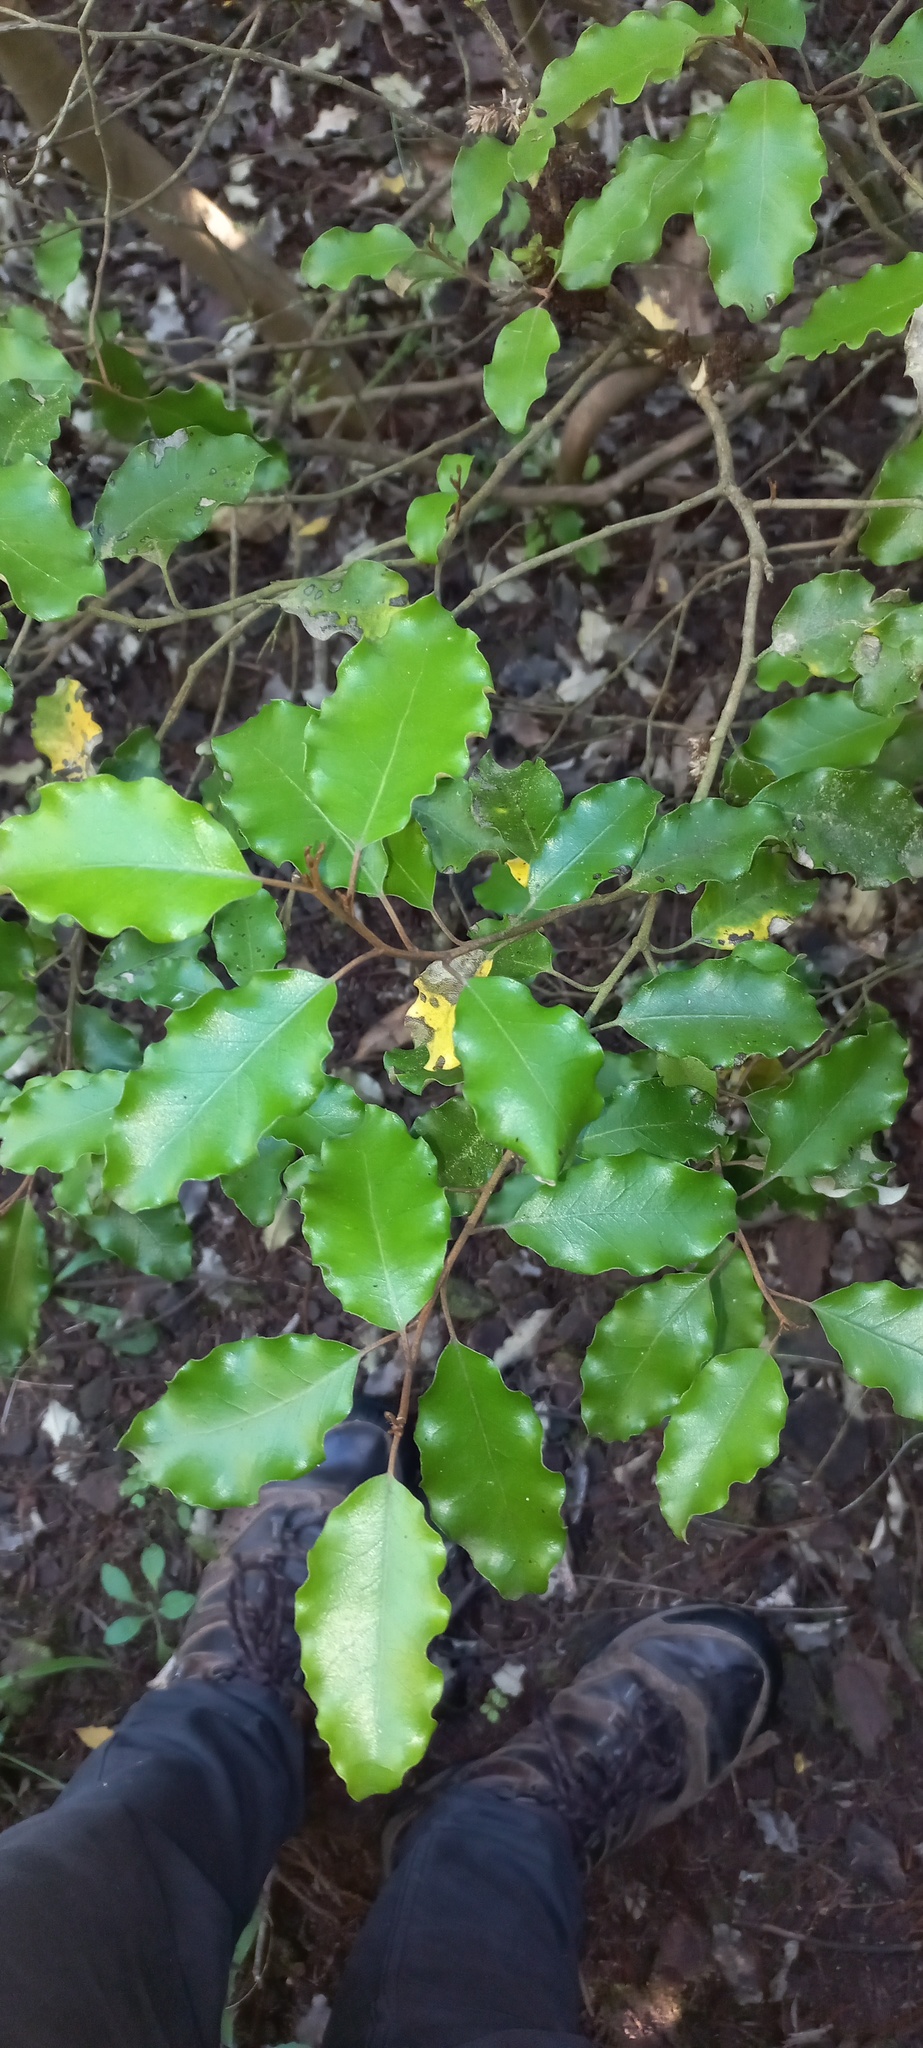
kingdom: Plantae
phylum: Tracheophyta
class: Magnoliopsida
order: Asterales
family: Asteraceae
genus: Olearia
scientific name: Olearia paniculata
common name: Akiraho
